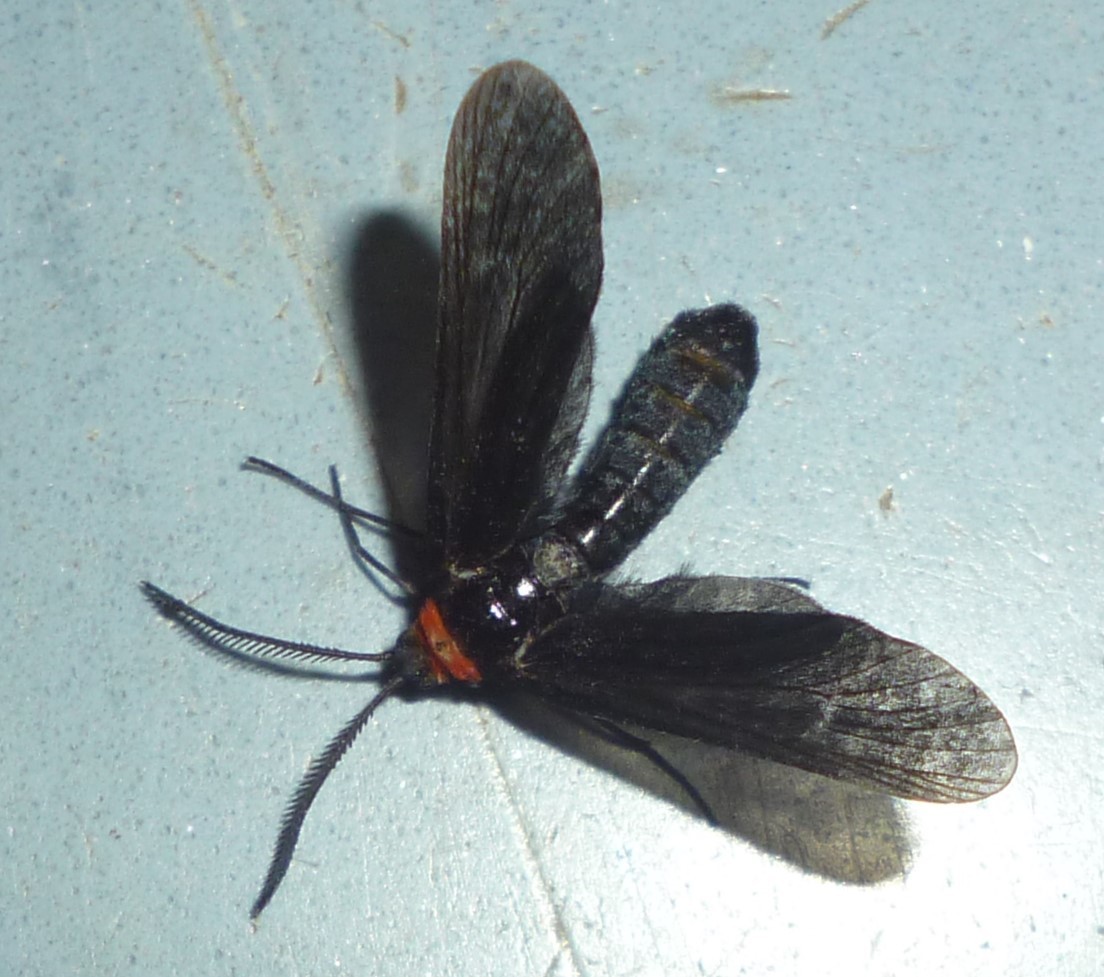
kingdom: Animalia
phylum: Arthropoda
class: Insecta
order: Lepidoptera
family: Zygaenidae
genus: Harrisina
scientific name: Harrisina americana
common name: Grapeleaf skeletonizer moth
